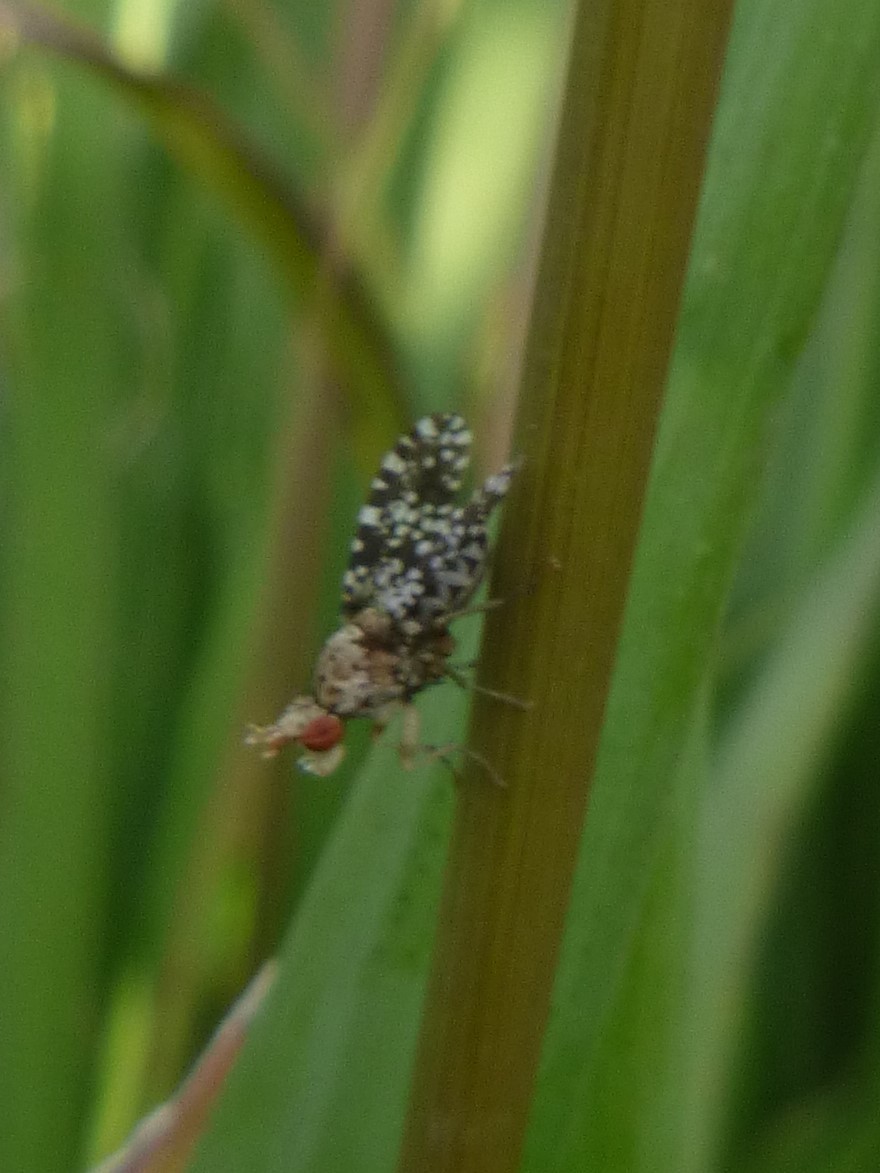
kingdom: Animalia
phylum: Arthropoda
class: Insecta
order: Diptera
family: Sciomyzidae
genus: Trypetoptera
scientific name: Trypetoptera punctulata
